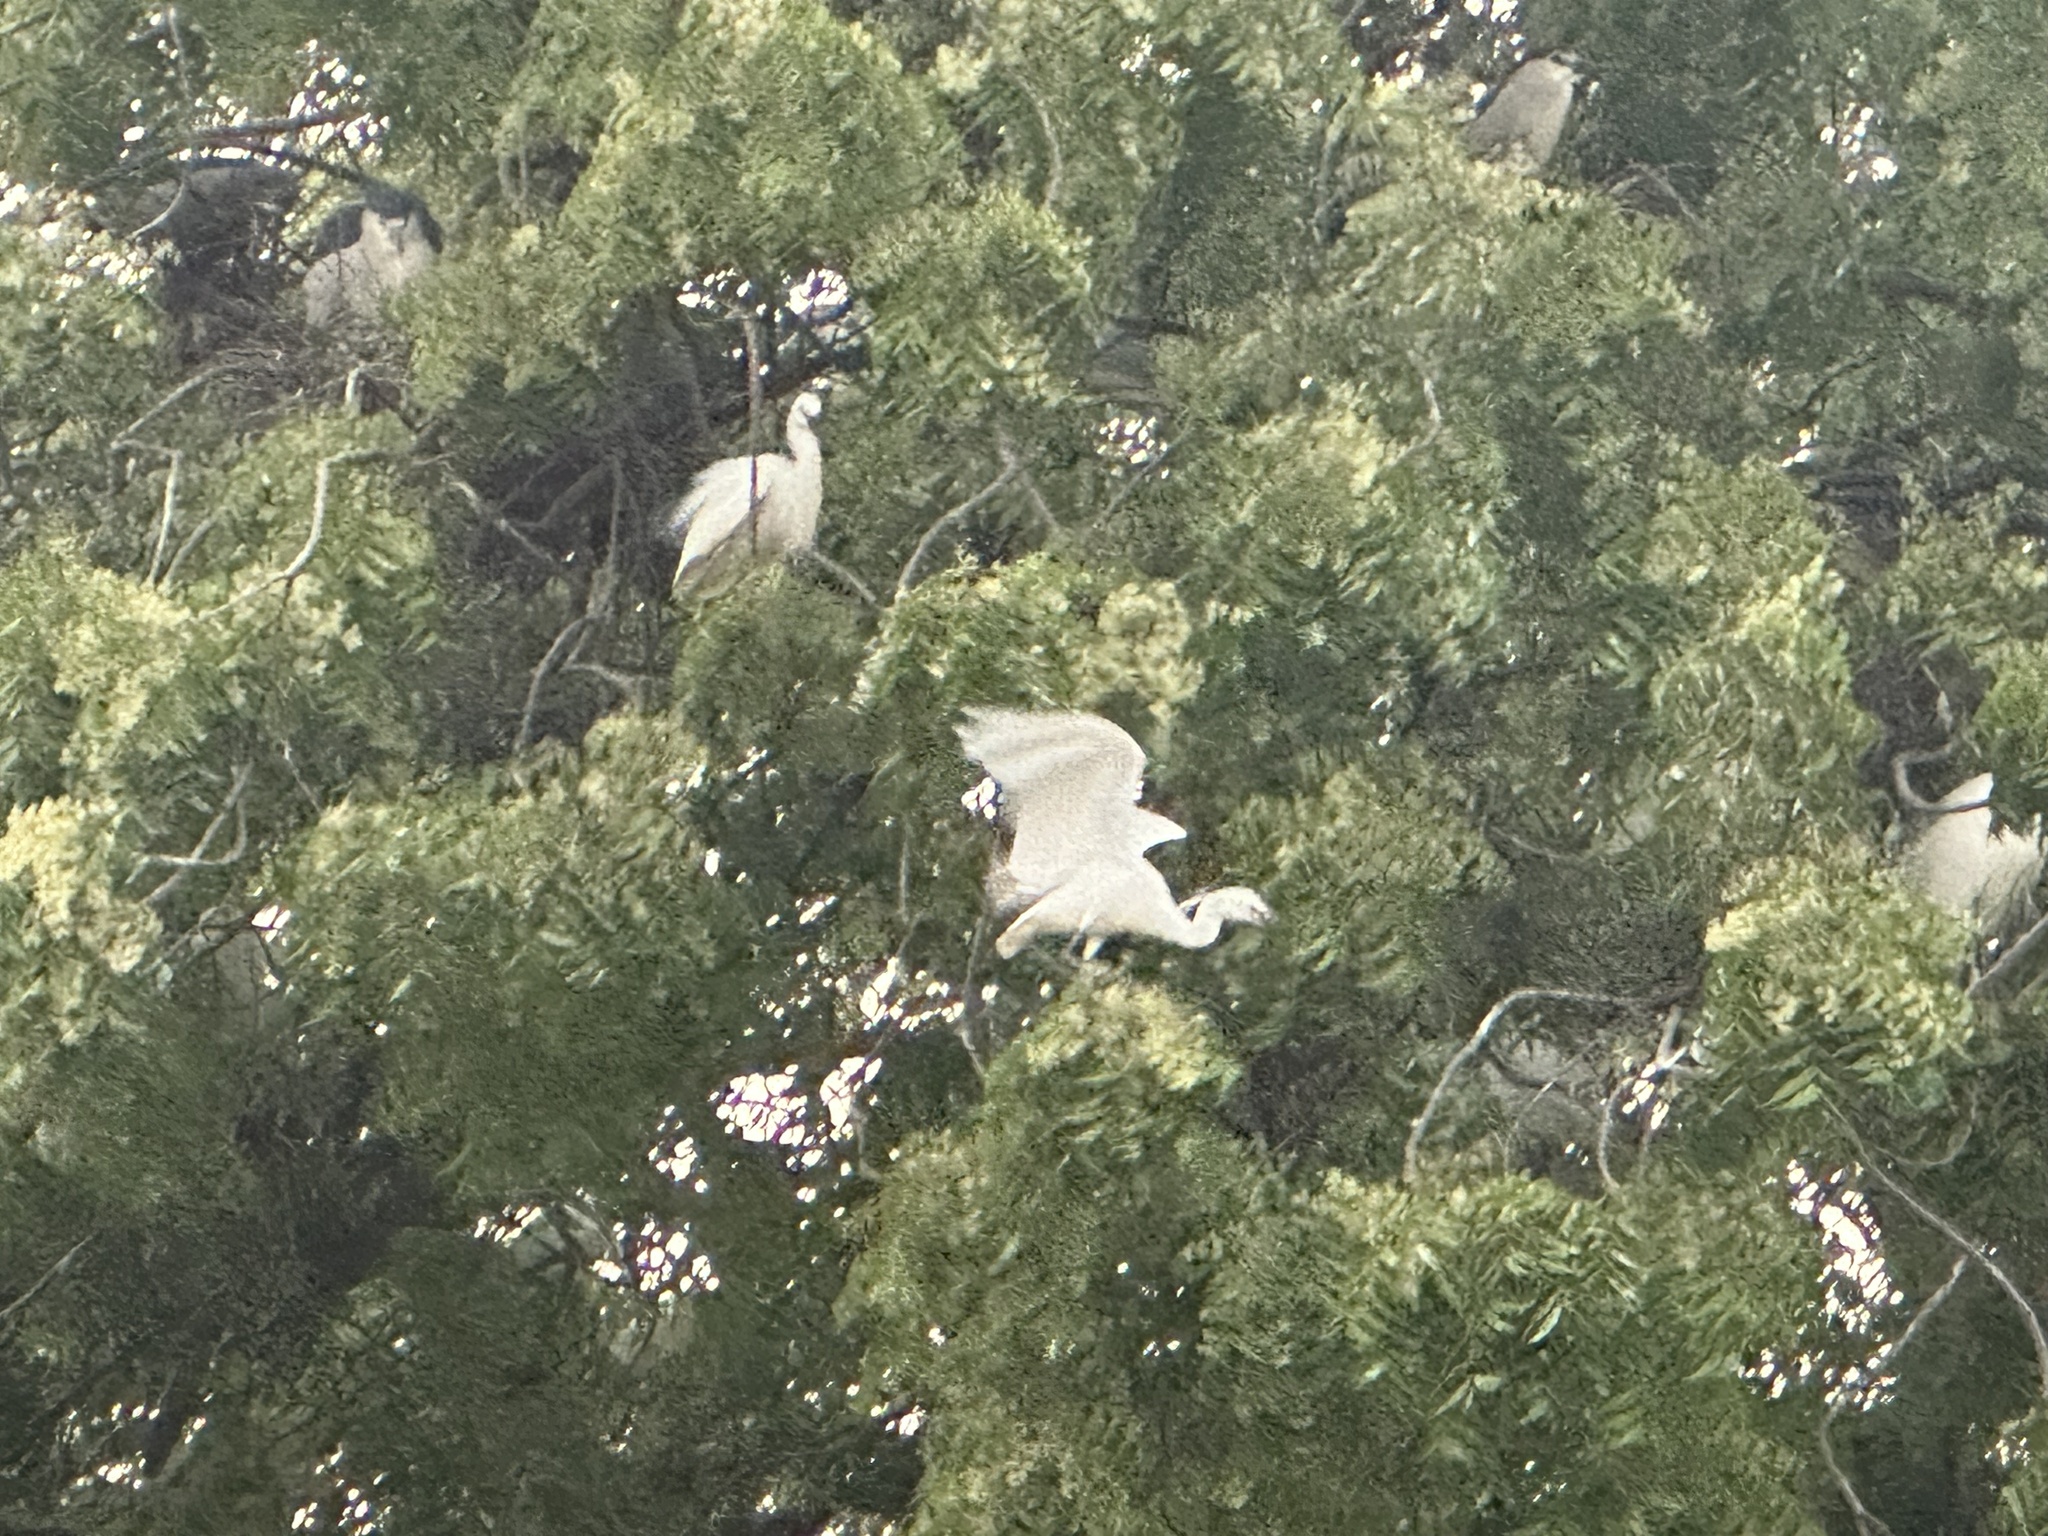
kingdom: Animalia
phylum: Chordata
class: Aves
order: Pelecaniformes
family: Ardeidae
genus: Egretta
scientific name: Egretta garzetta
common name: Little egret
